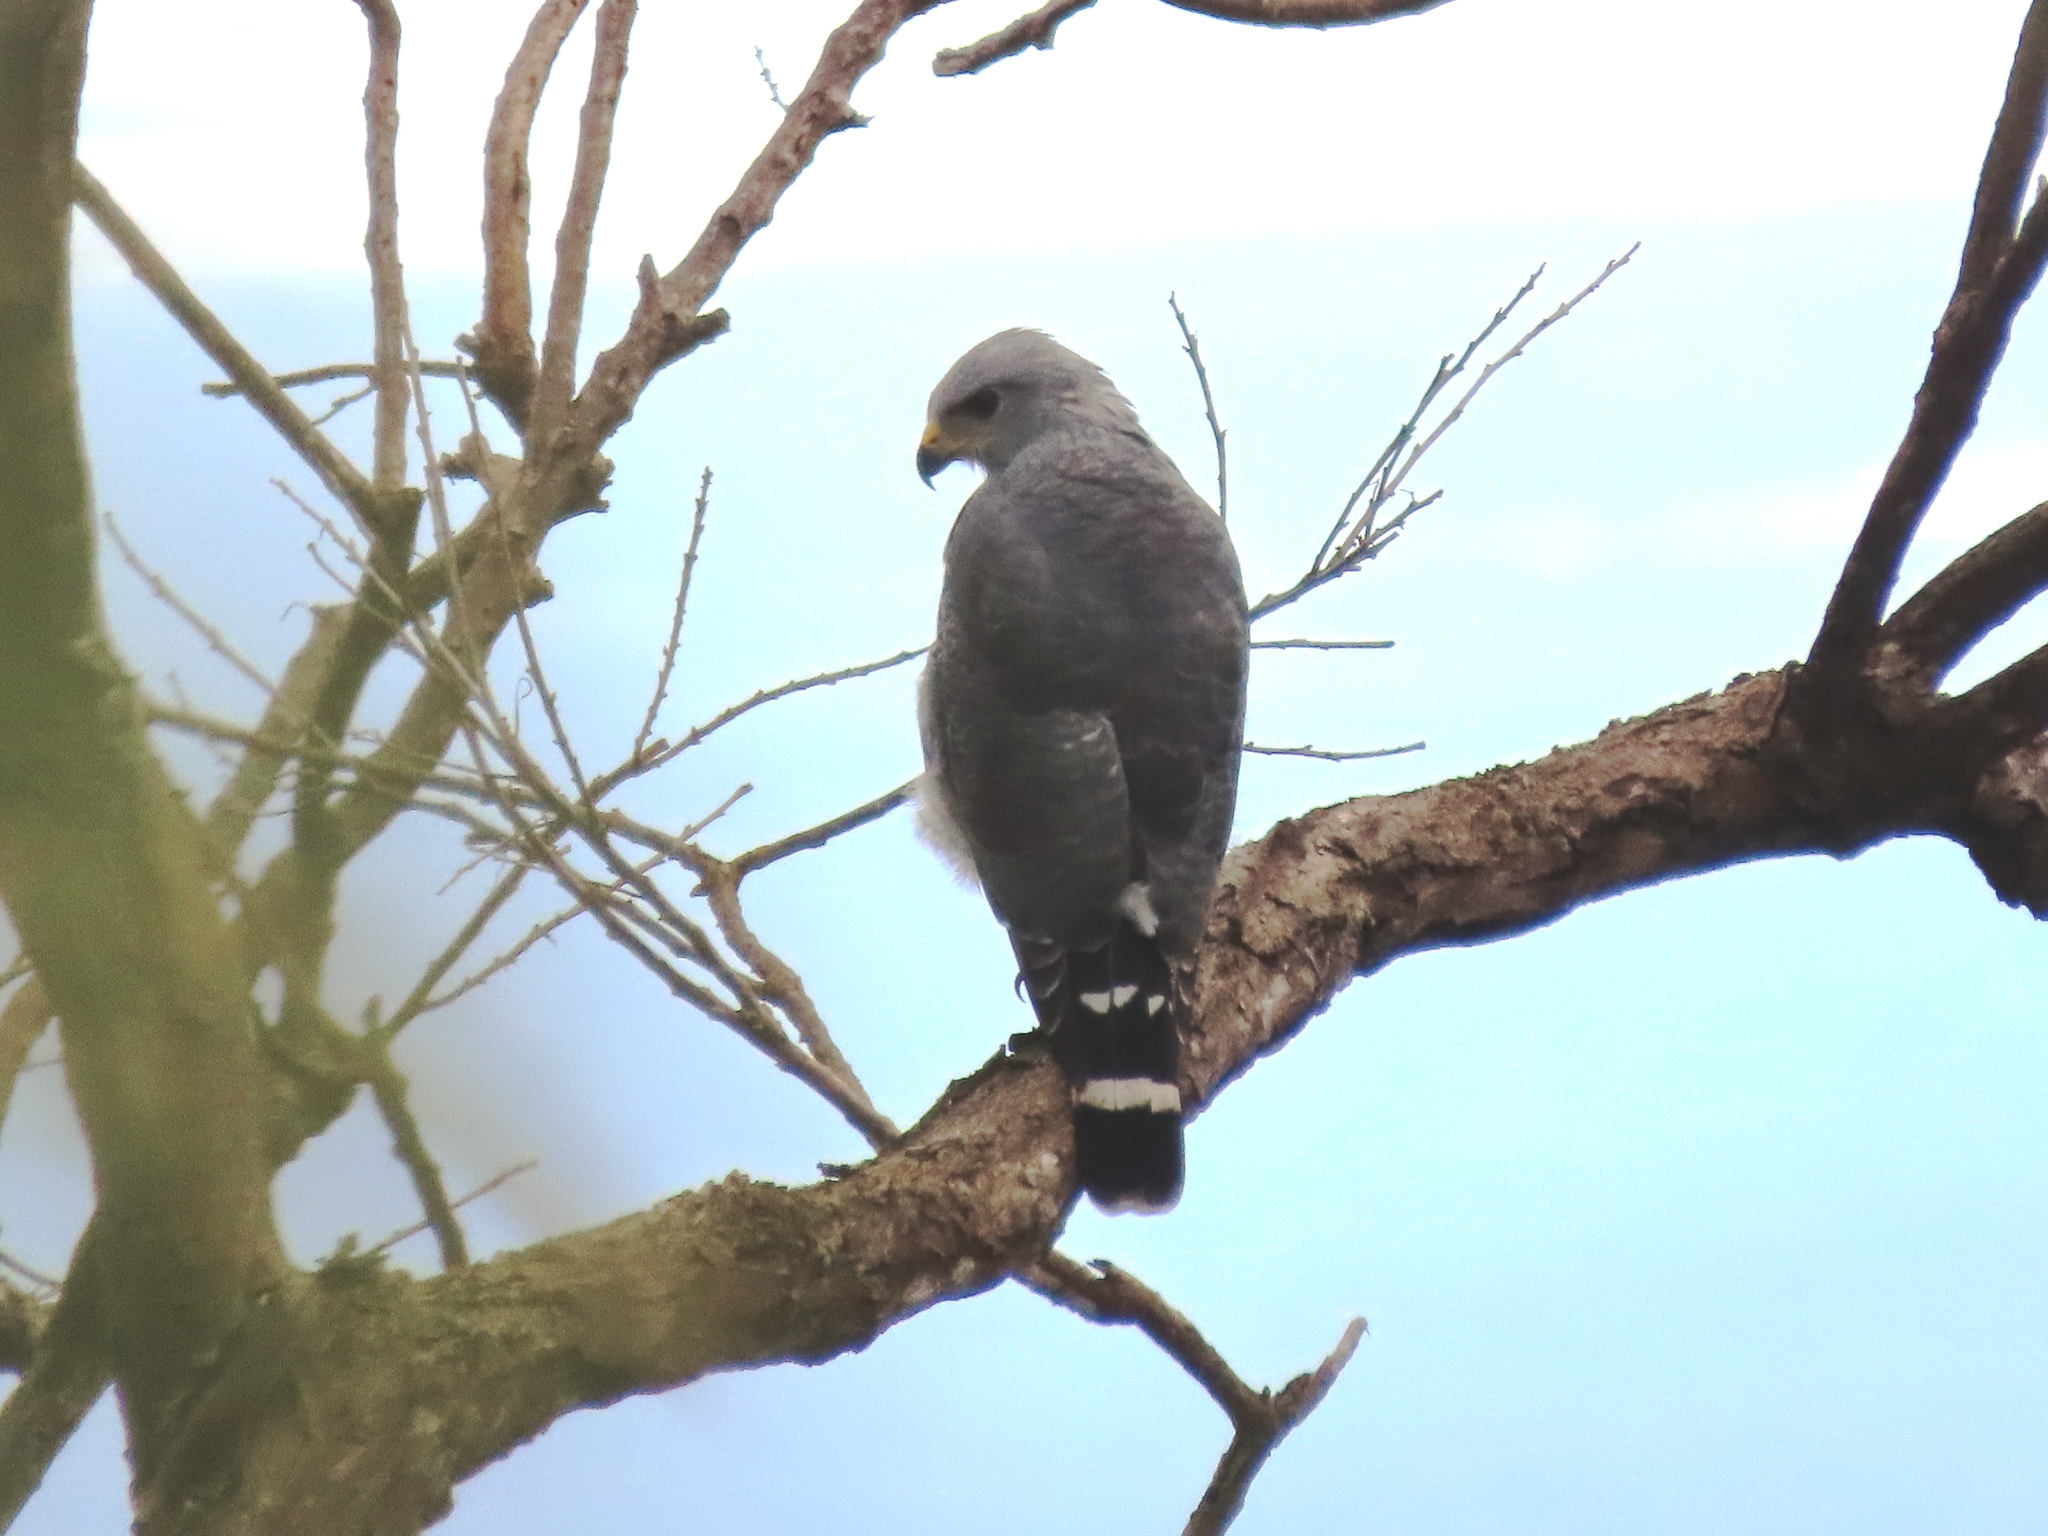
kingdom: Animalia
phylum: Chordata
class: Aves
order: Accipitriformes
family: Accipitridae
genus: Buteo
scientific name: Buteo nitidus
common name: Grey-lined hawk
